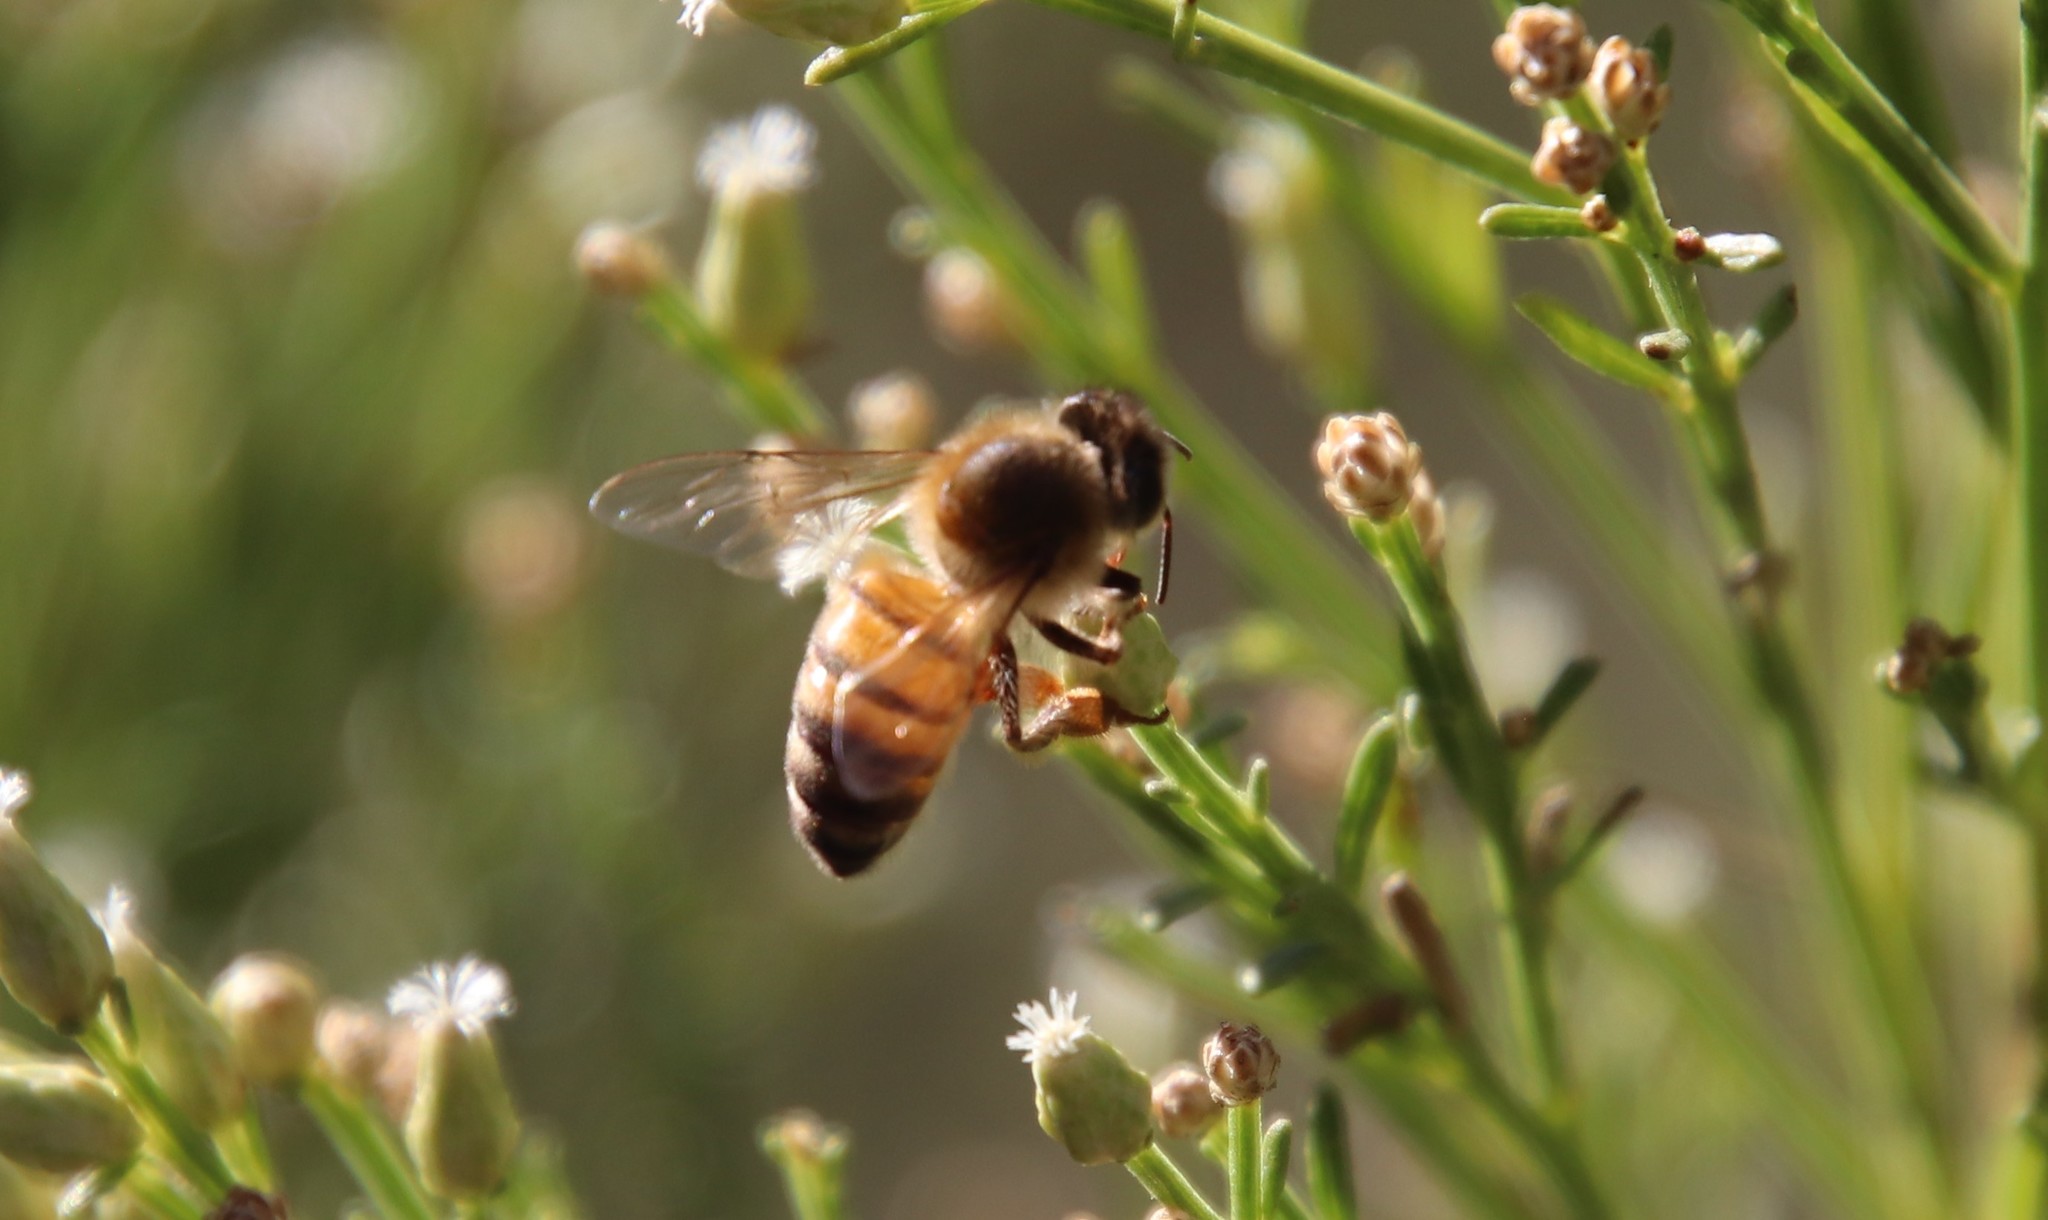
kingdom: Animalia
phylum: Arthropoda
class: Insecta
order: Hymenoptera
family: Apidae
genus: Apis
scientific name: Apis mellifera
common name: Honey bee
